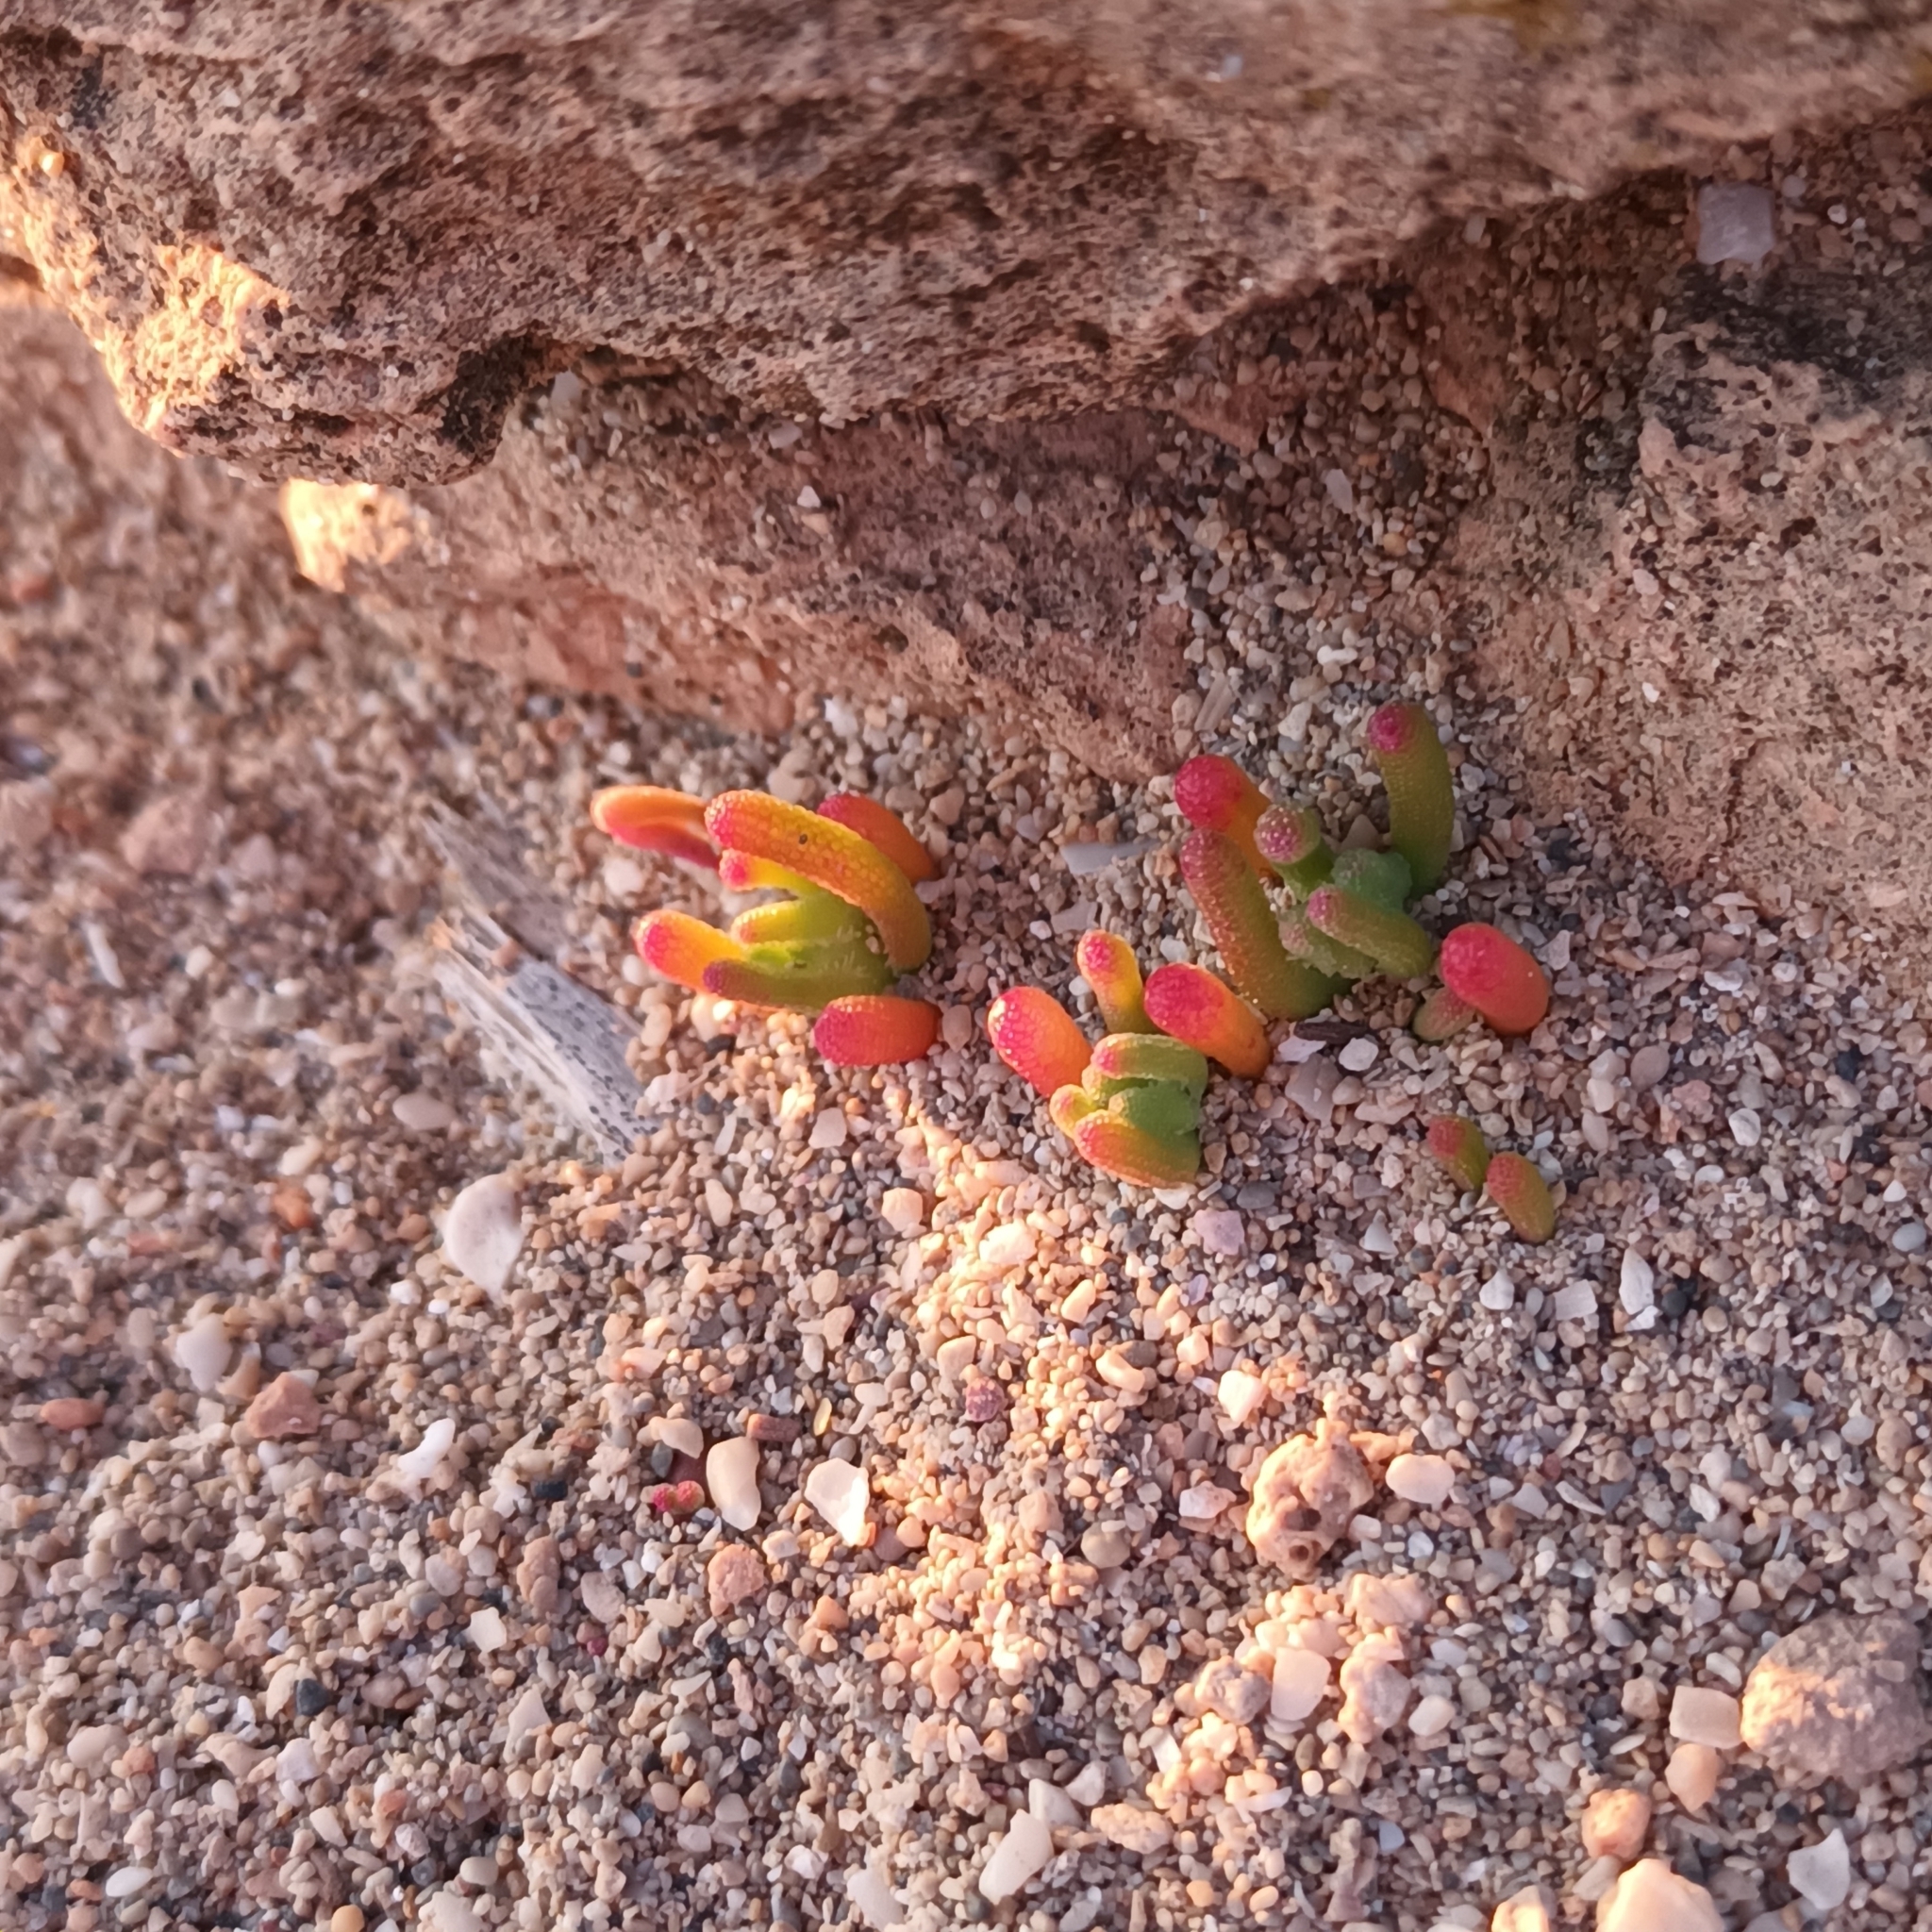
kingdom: Plantae
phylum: Tracheophyta
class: Magnoliopsida
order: Caryophyllales
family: Aizoaceae
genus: Mesembryanthemum
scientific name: Mesembryanthemum nodiflorum
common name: Slenderleaf iceplant
